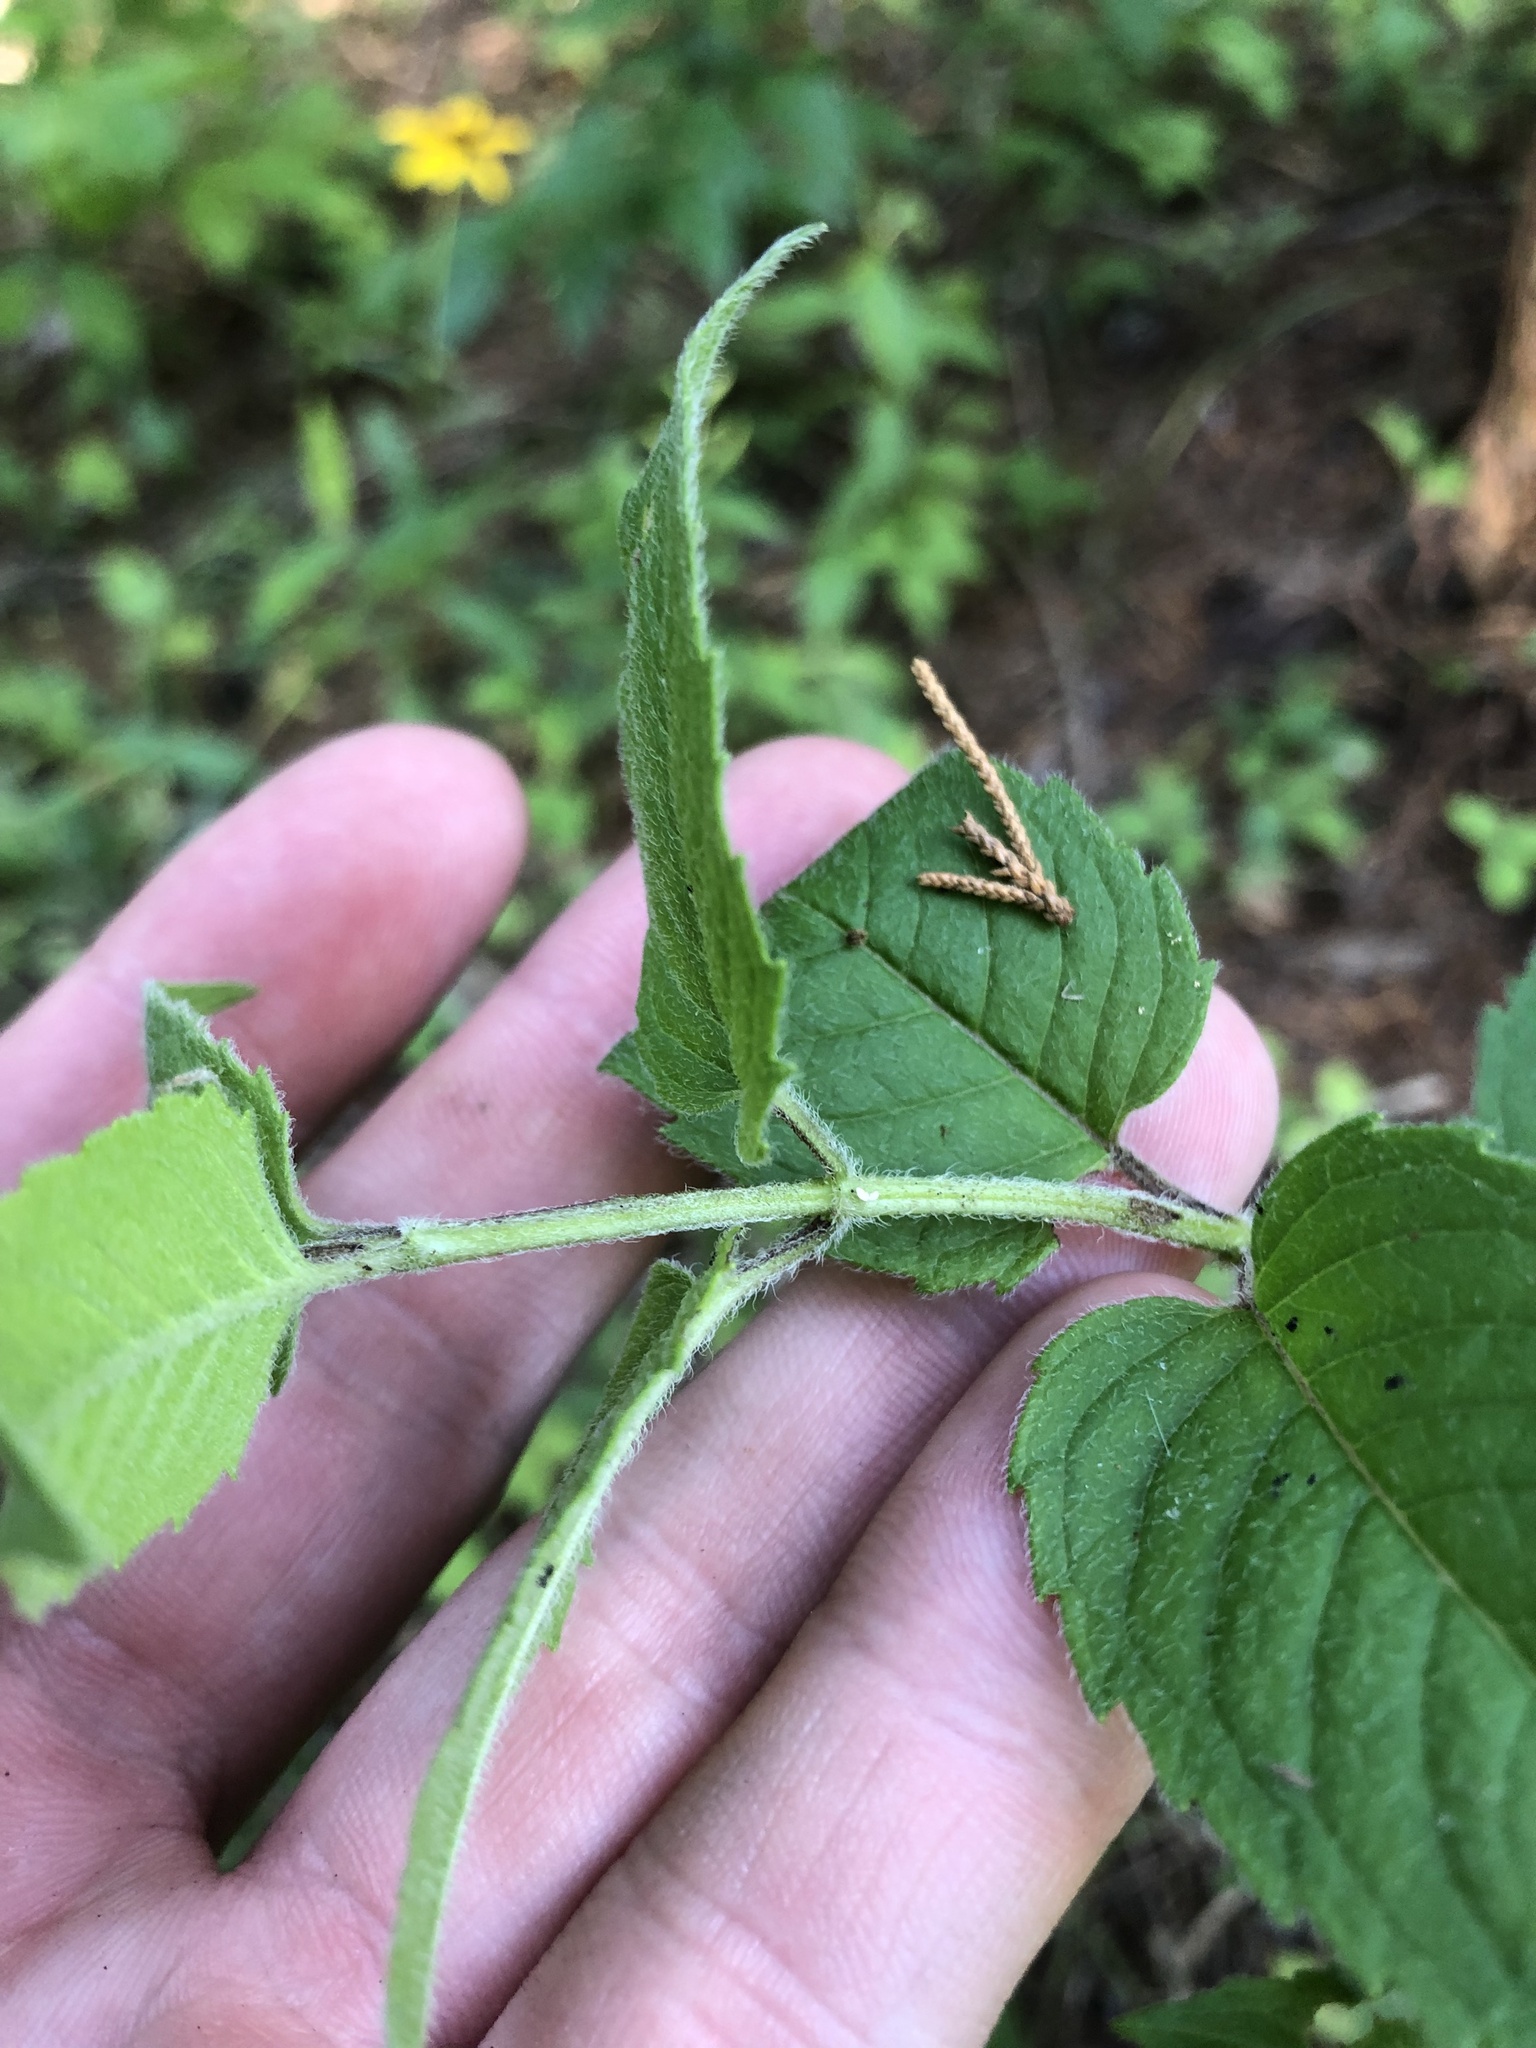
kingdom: Plantae
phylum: Tracheophyta
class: Magnoliopsida
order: Lamiales
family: Lamiaceae
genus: Monarda
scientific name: Monarda fistulosa
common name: Purple beebalm
